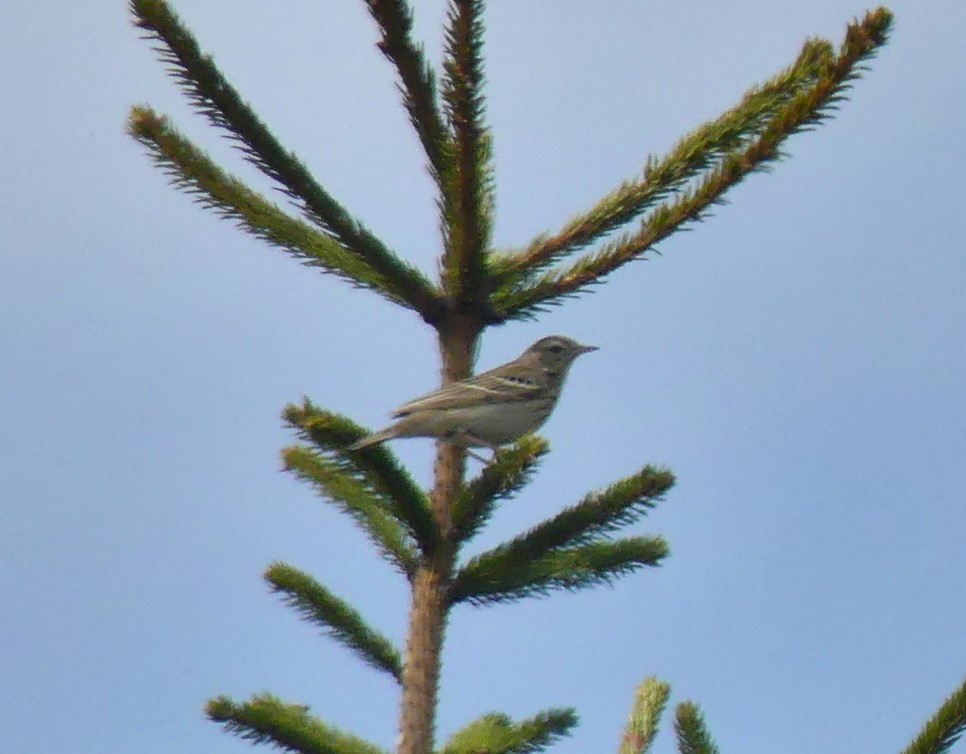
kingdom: Animalia
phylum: Chordata
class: Aves
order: Passeriformes
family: Motacillidae
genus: Anthus
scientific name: Anthus trivialis
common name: Tree pipit
